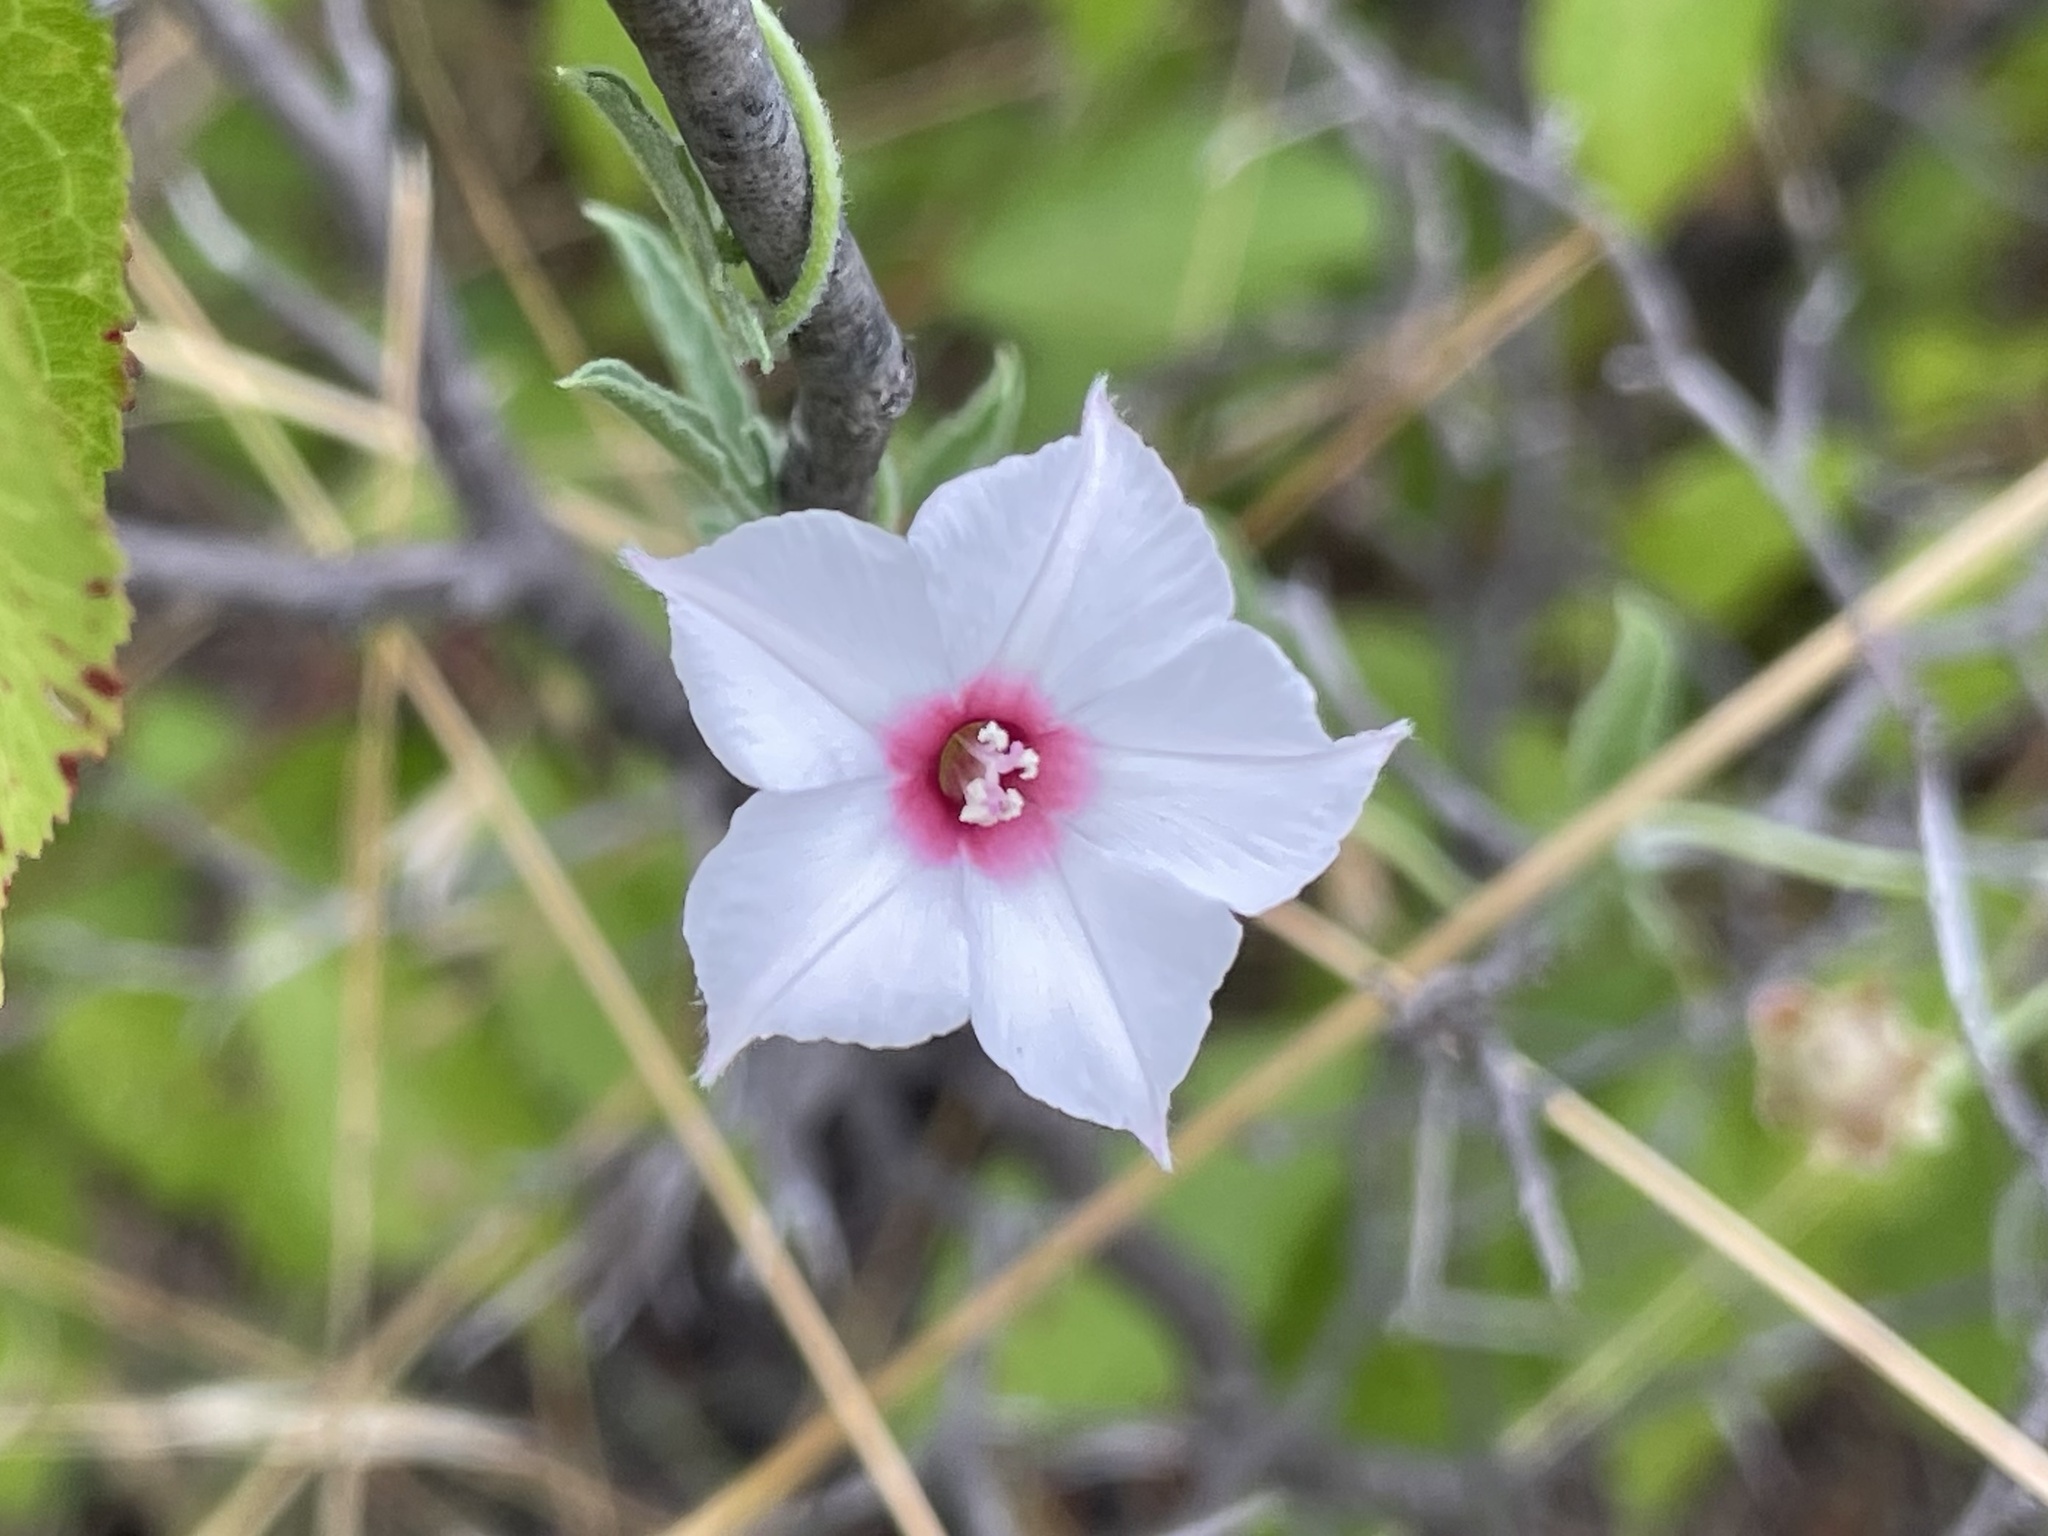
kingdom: Plantae
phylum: Tracheophyta
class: Magnoliopsida
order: Solanales
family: Convolvulaceae
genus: Convolvulus
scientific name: Convolvulus equitans
